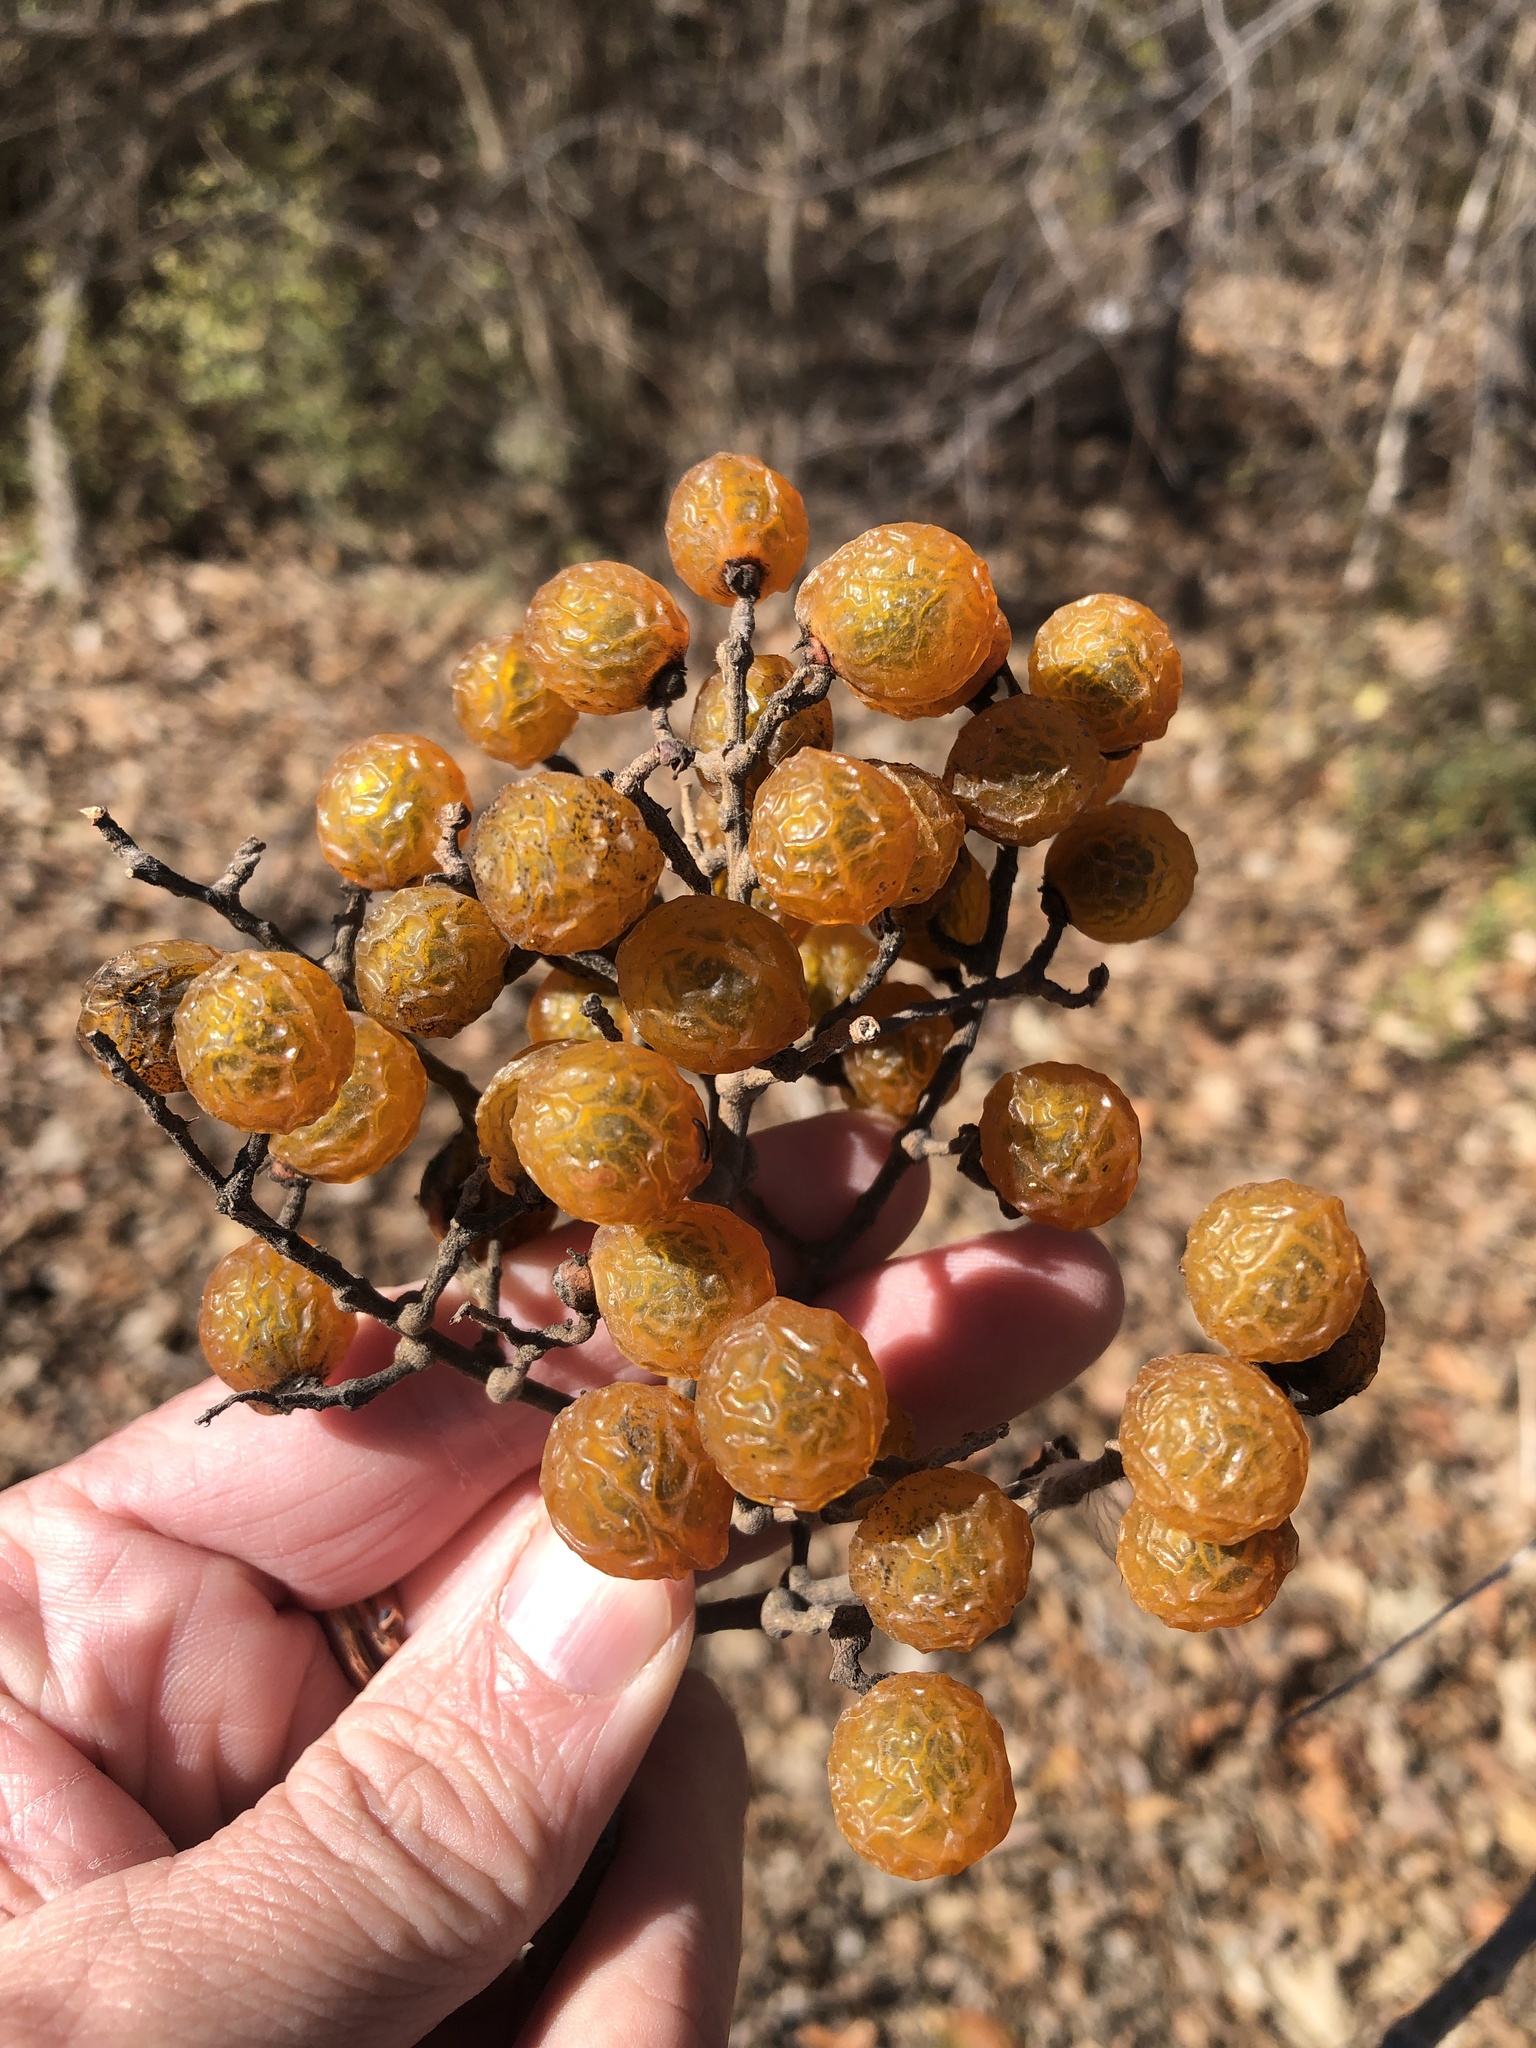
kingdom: Plantae
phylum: Tracheophyta
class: Magnoliopsida
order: Sapindales
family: Sapindaceae
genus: Sapindus
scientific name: Sapindus drummondii
